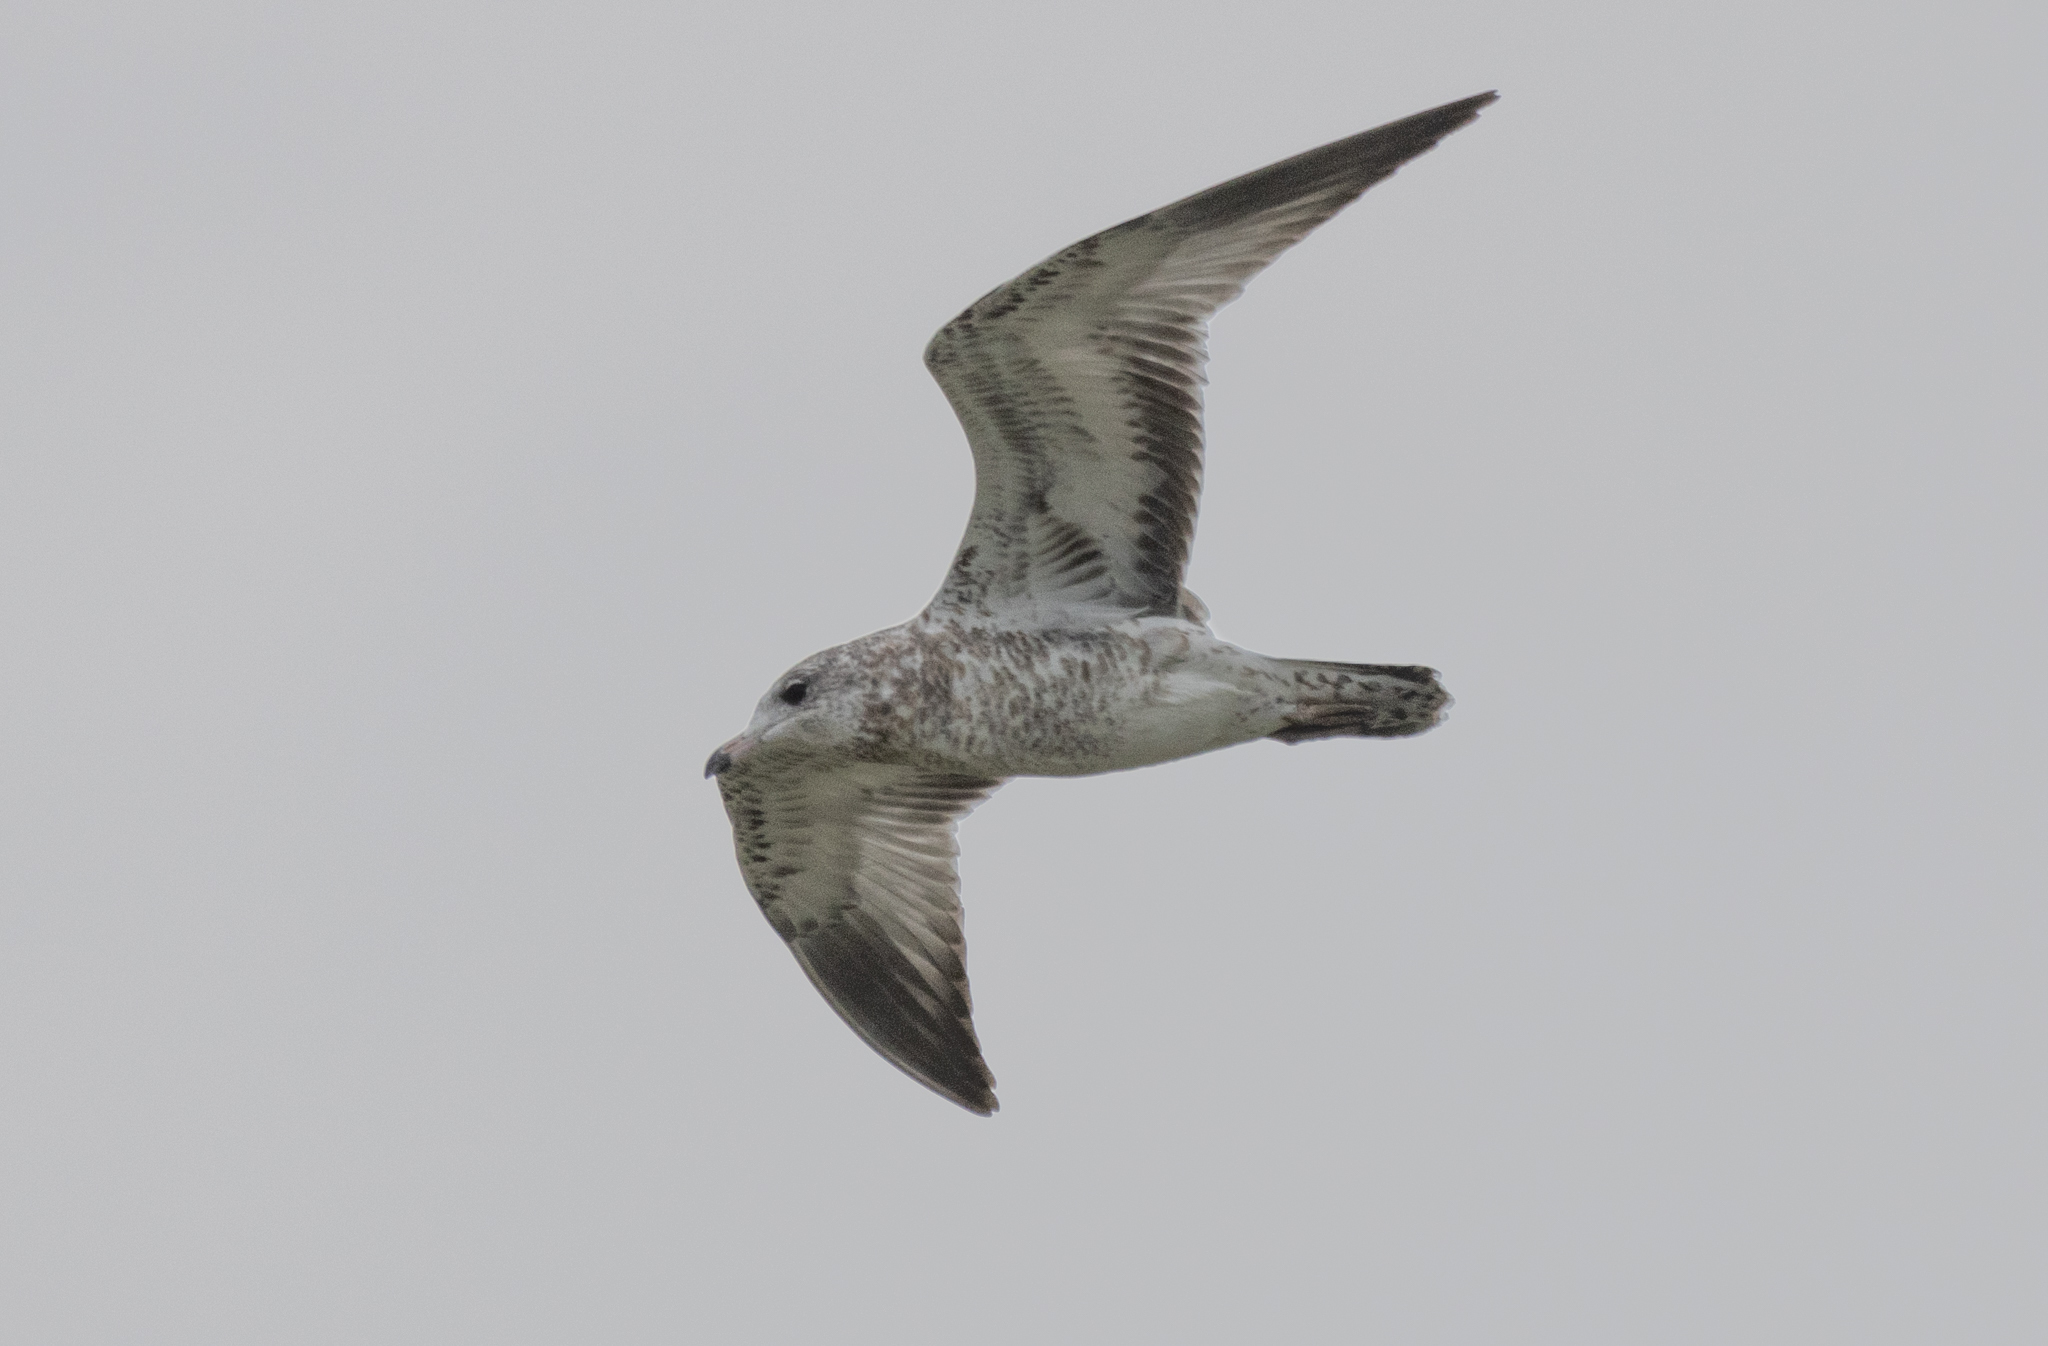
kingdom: Animalia
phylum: Chordata
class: Aves
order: Charadriiformes
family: Laridae
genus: Larus
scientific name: Larus delawarensis
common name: Ring-billed gull
